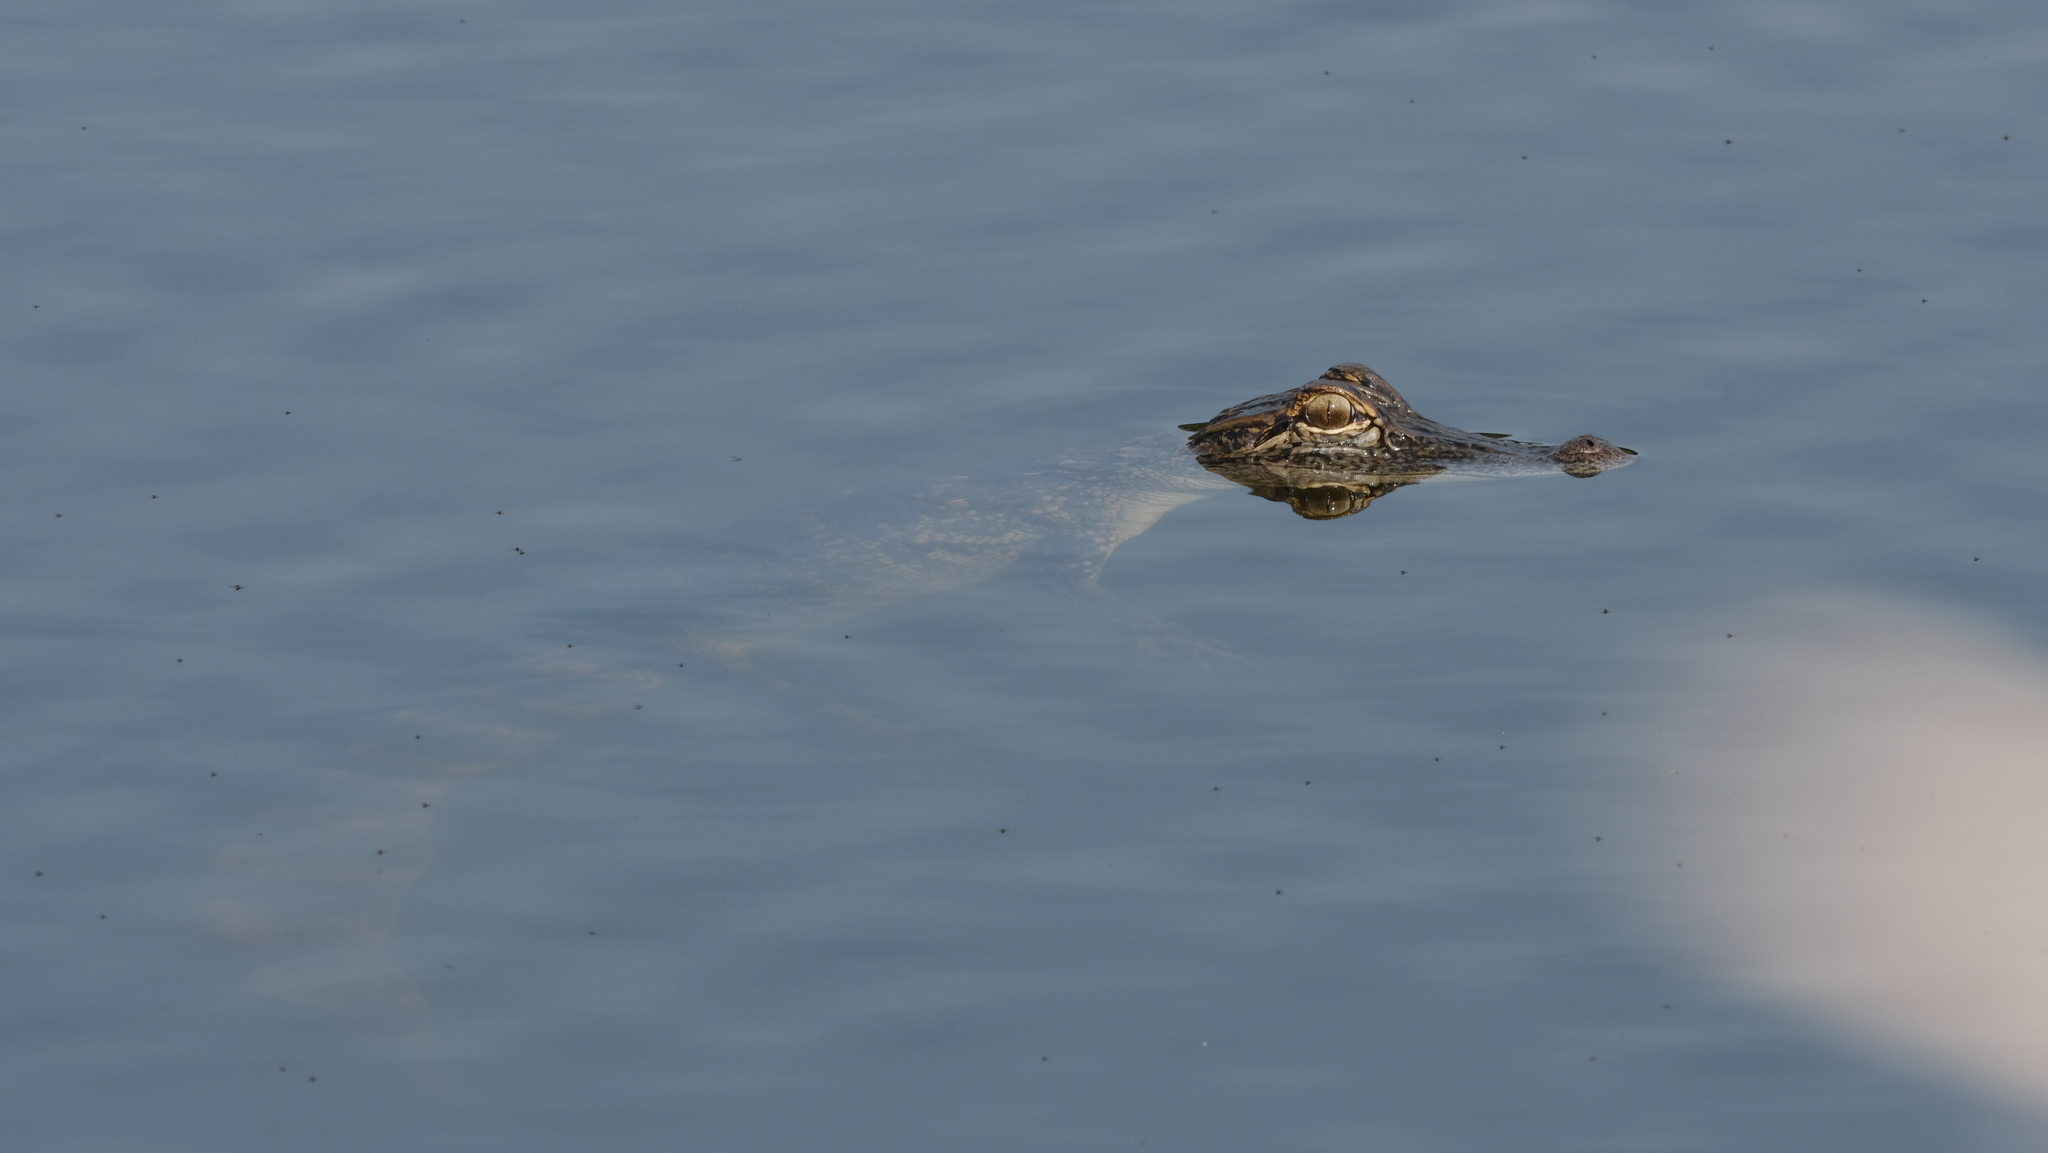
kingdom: Animalia
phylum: Chordata
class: Crocodylia
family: Alligatoridae
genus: Alligator
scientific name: Alligator mississippiensis
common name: American alligator
